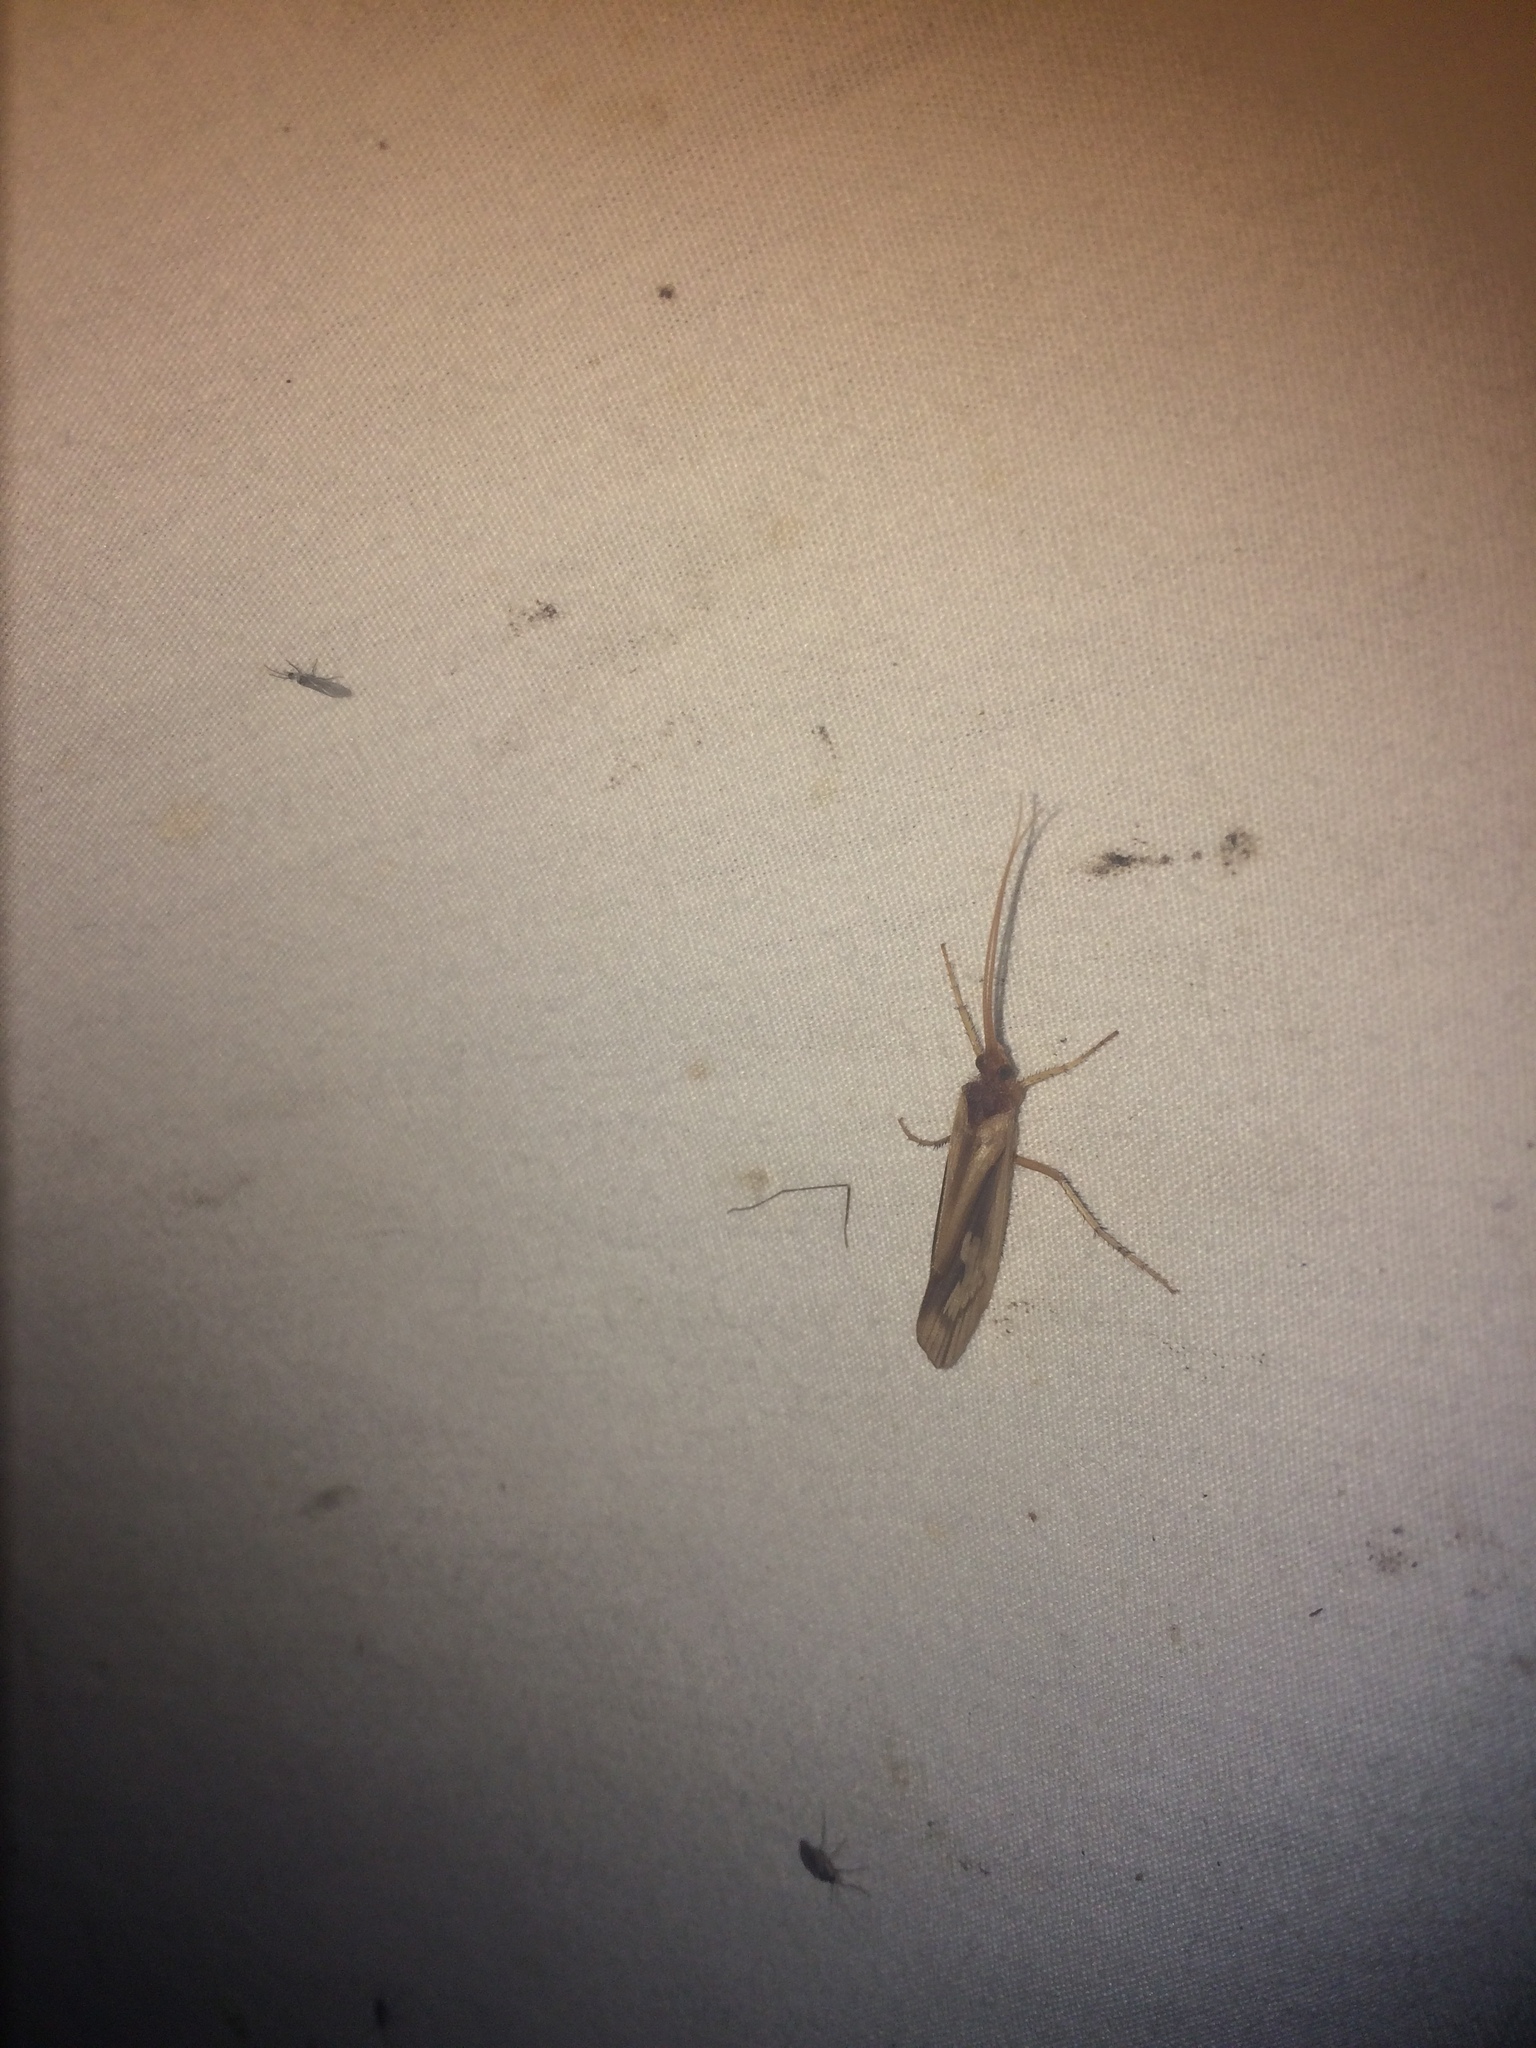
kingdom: Animalia
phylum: Arthropoda
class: Insecta
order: Trichoptera
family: Limnephilidae
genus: Platycentropus
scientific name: Platycentropus radiatus
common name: Chocolate-and-cream sedge
